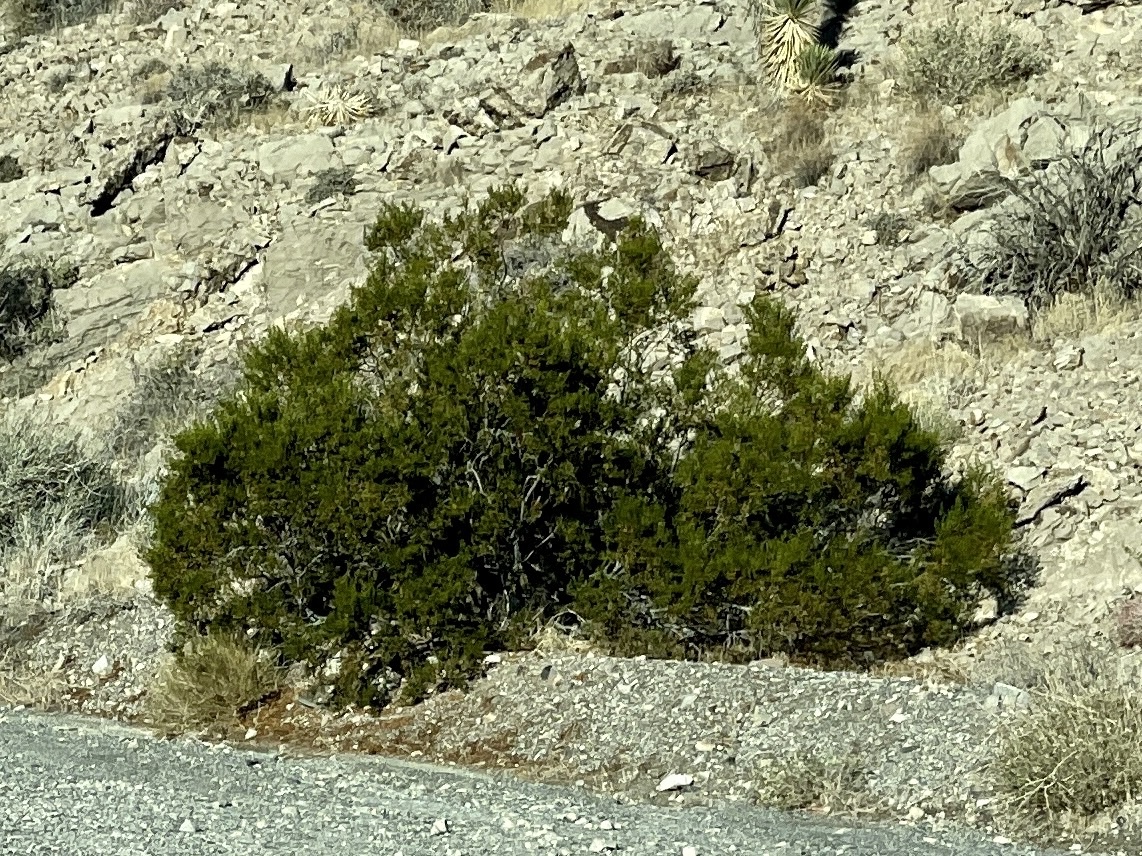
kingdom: Plantae
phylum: Tracheophyta
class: Magnoliopsida
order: Zygophyllales
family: Zygophyllaceae
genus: Larrea
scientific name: Larrea tridentata
